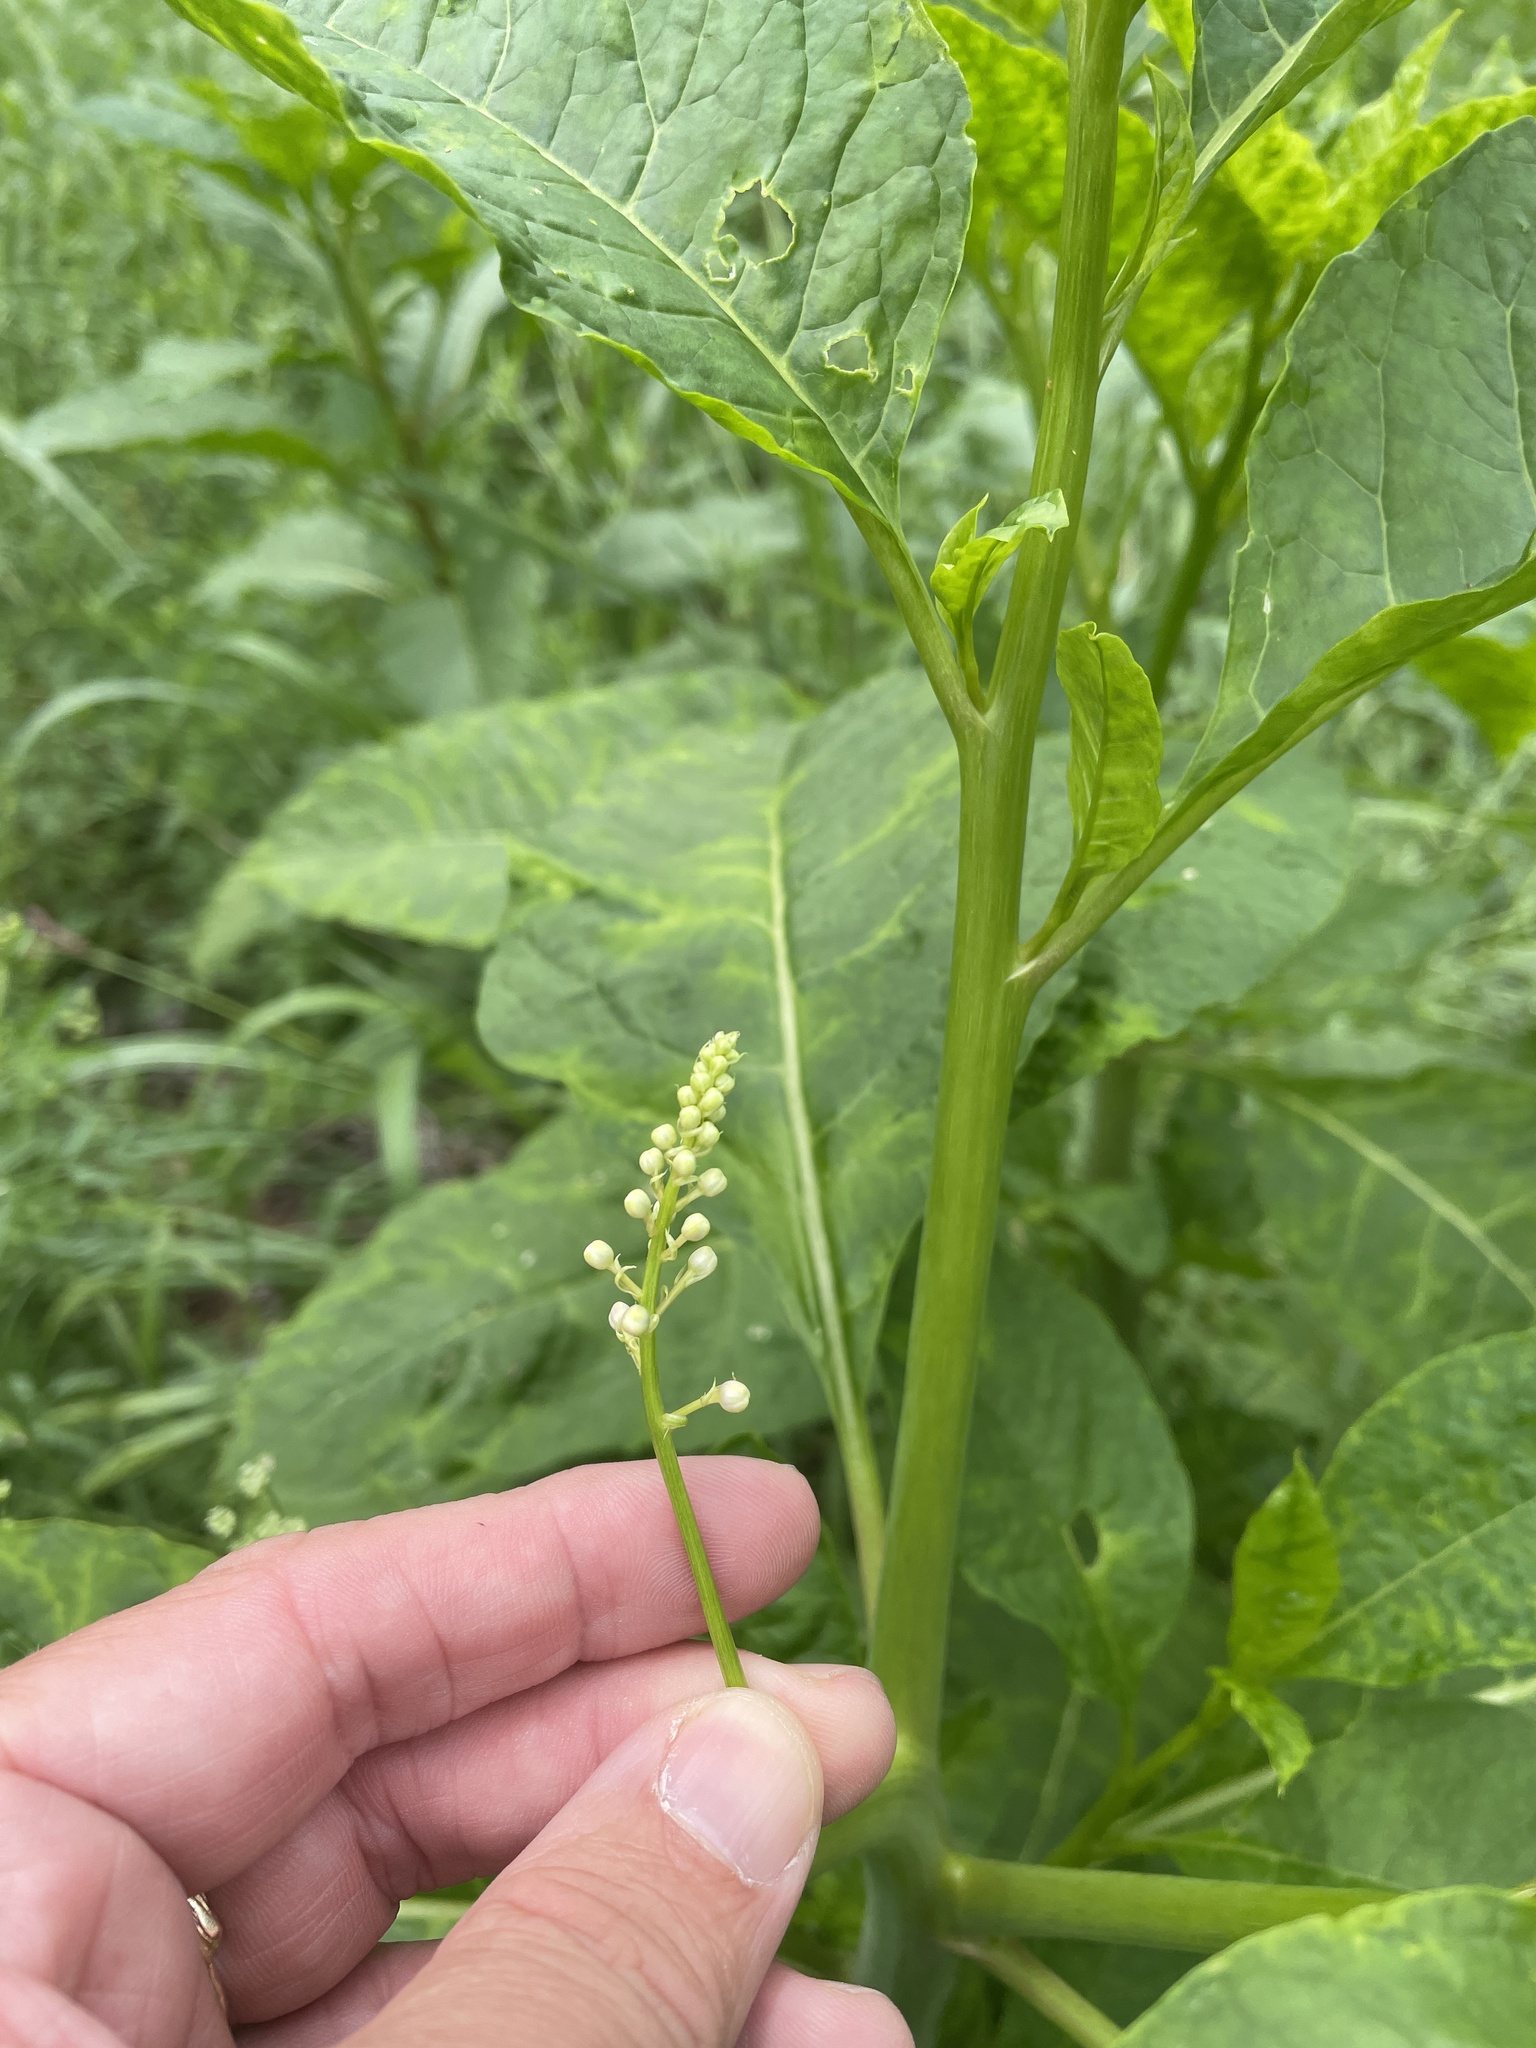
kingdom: Plantae
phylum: Tracheophyta
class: Magnoliopsida
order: Caryophyllales
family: Phytolaccaceae
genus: Phytolacca
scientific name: Phytolacca americana
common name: American pokeweed
